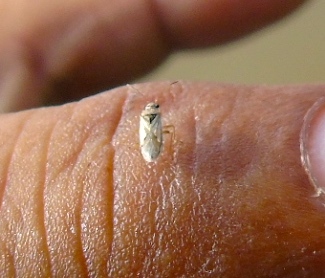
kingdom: Animalia
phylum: Arthropoda
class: Insecta
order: Hemiptera
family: Lygaeidae
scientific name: Lygaeidae
